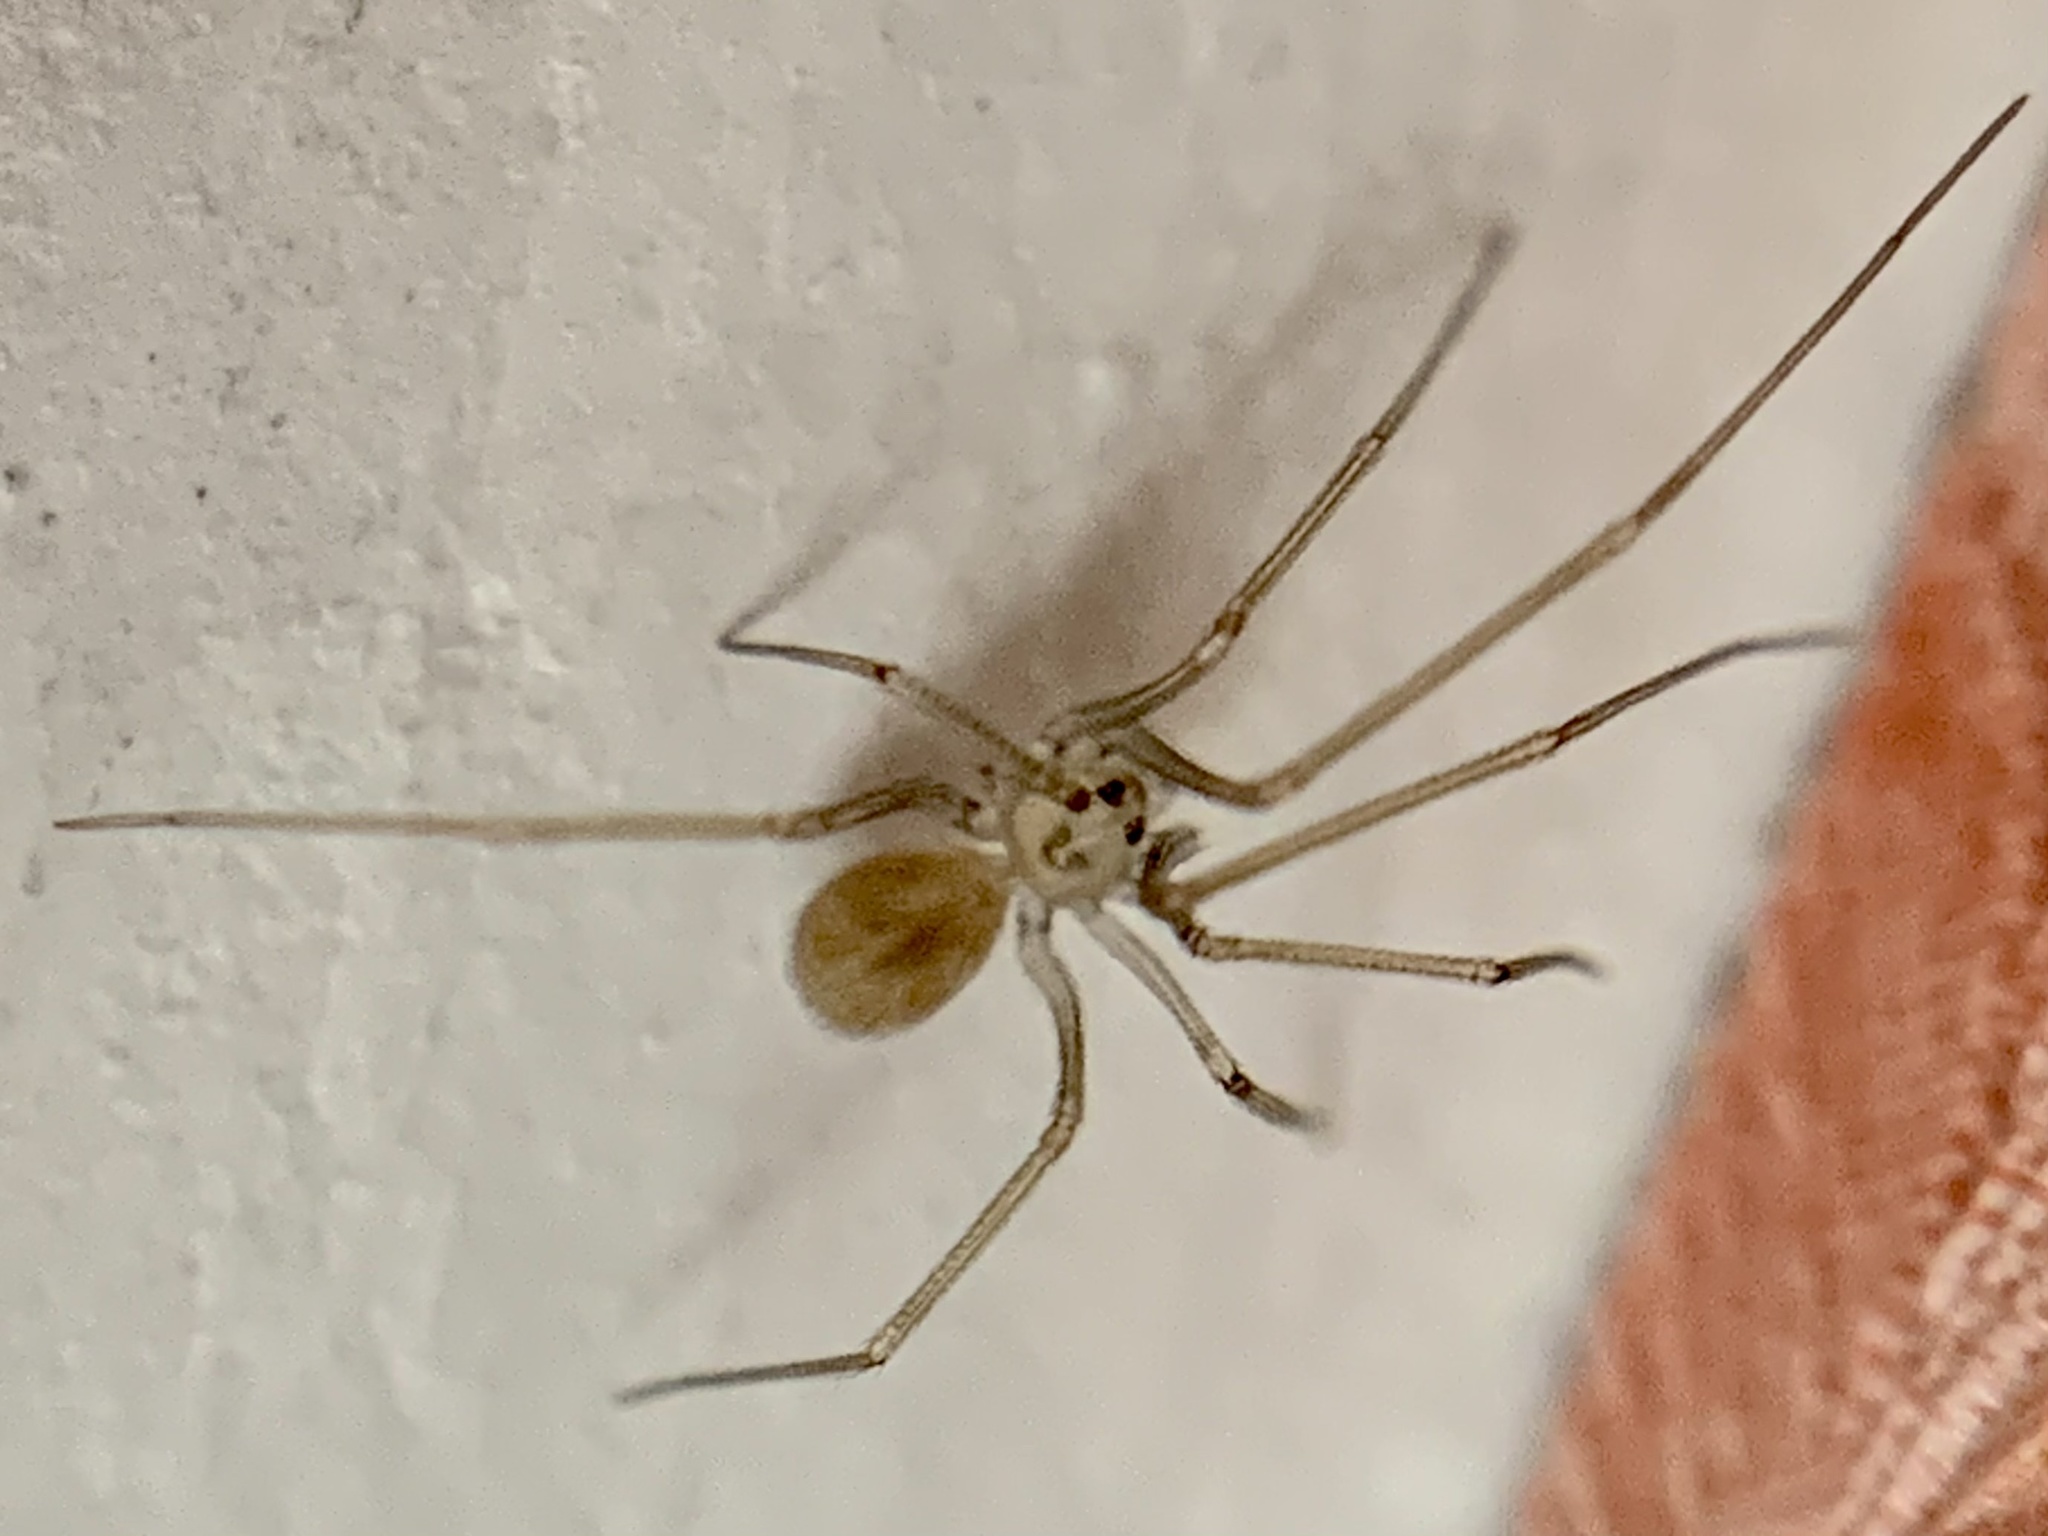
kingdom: Animalia
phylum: Arthropoda
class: Arachnida
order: Araneae
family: Pholcidae
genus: Spermophora
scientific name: Spermophora senoculata
